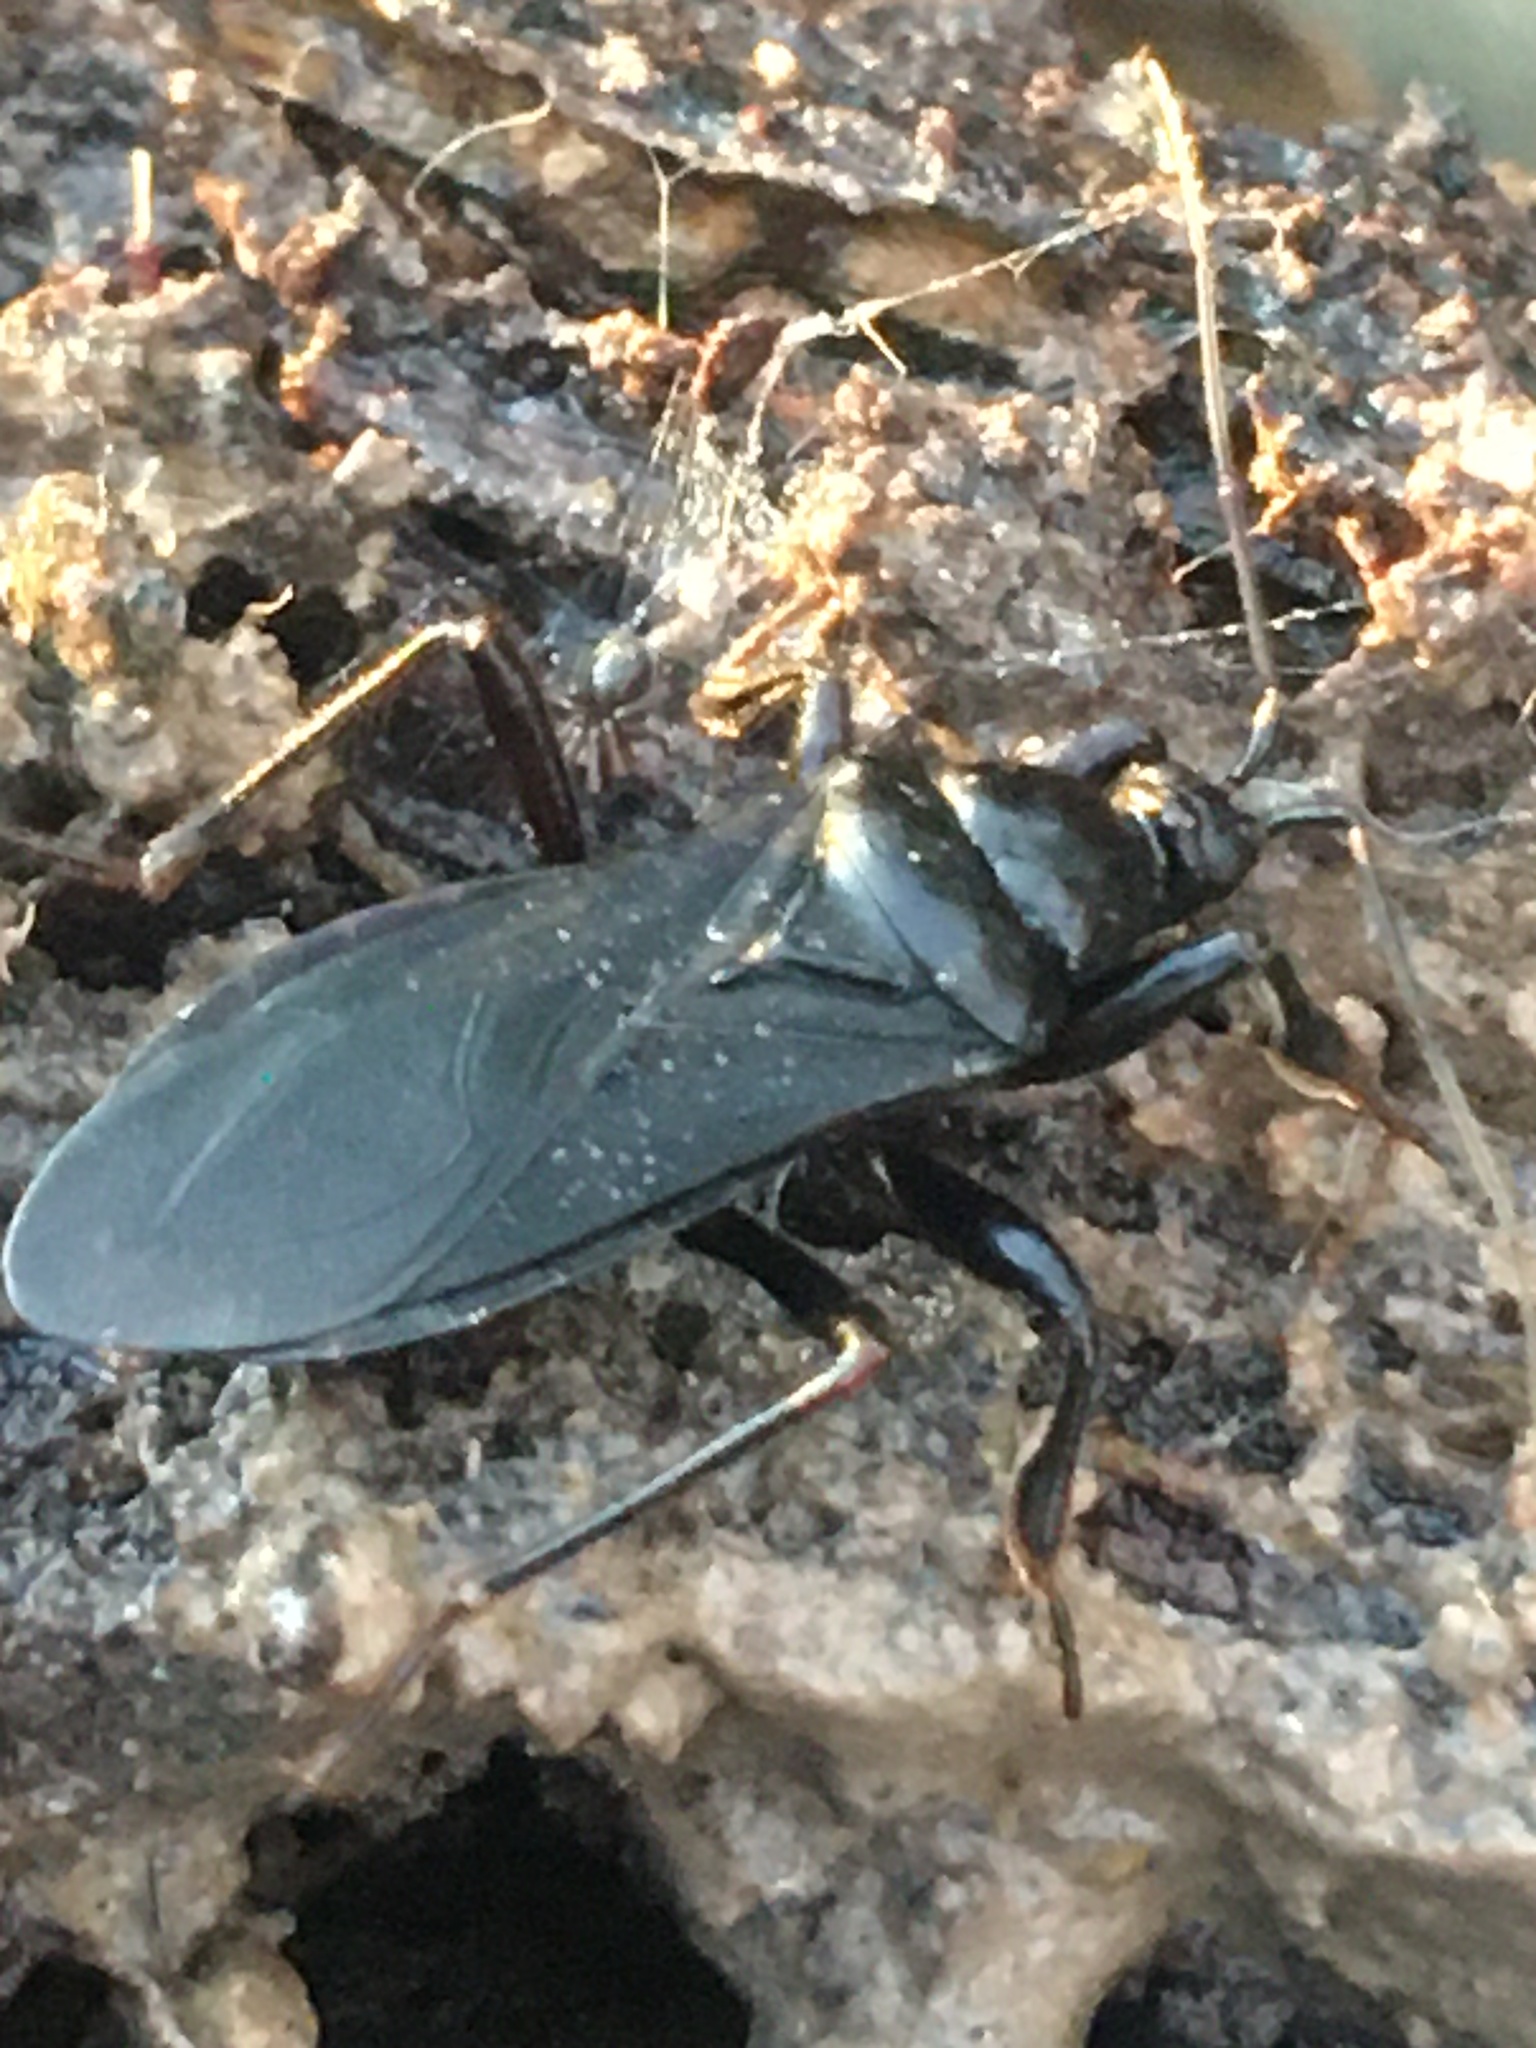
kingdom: Animalia
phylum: Arthropoda
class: Insecta
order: Hemiptera
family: Reduviidae
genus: Melanolestes
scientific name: Melanolestes picipes
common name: Assassin bug
